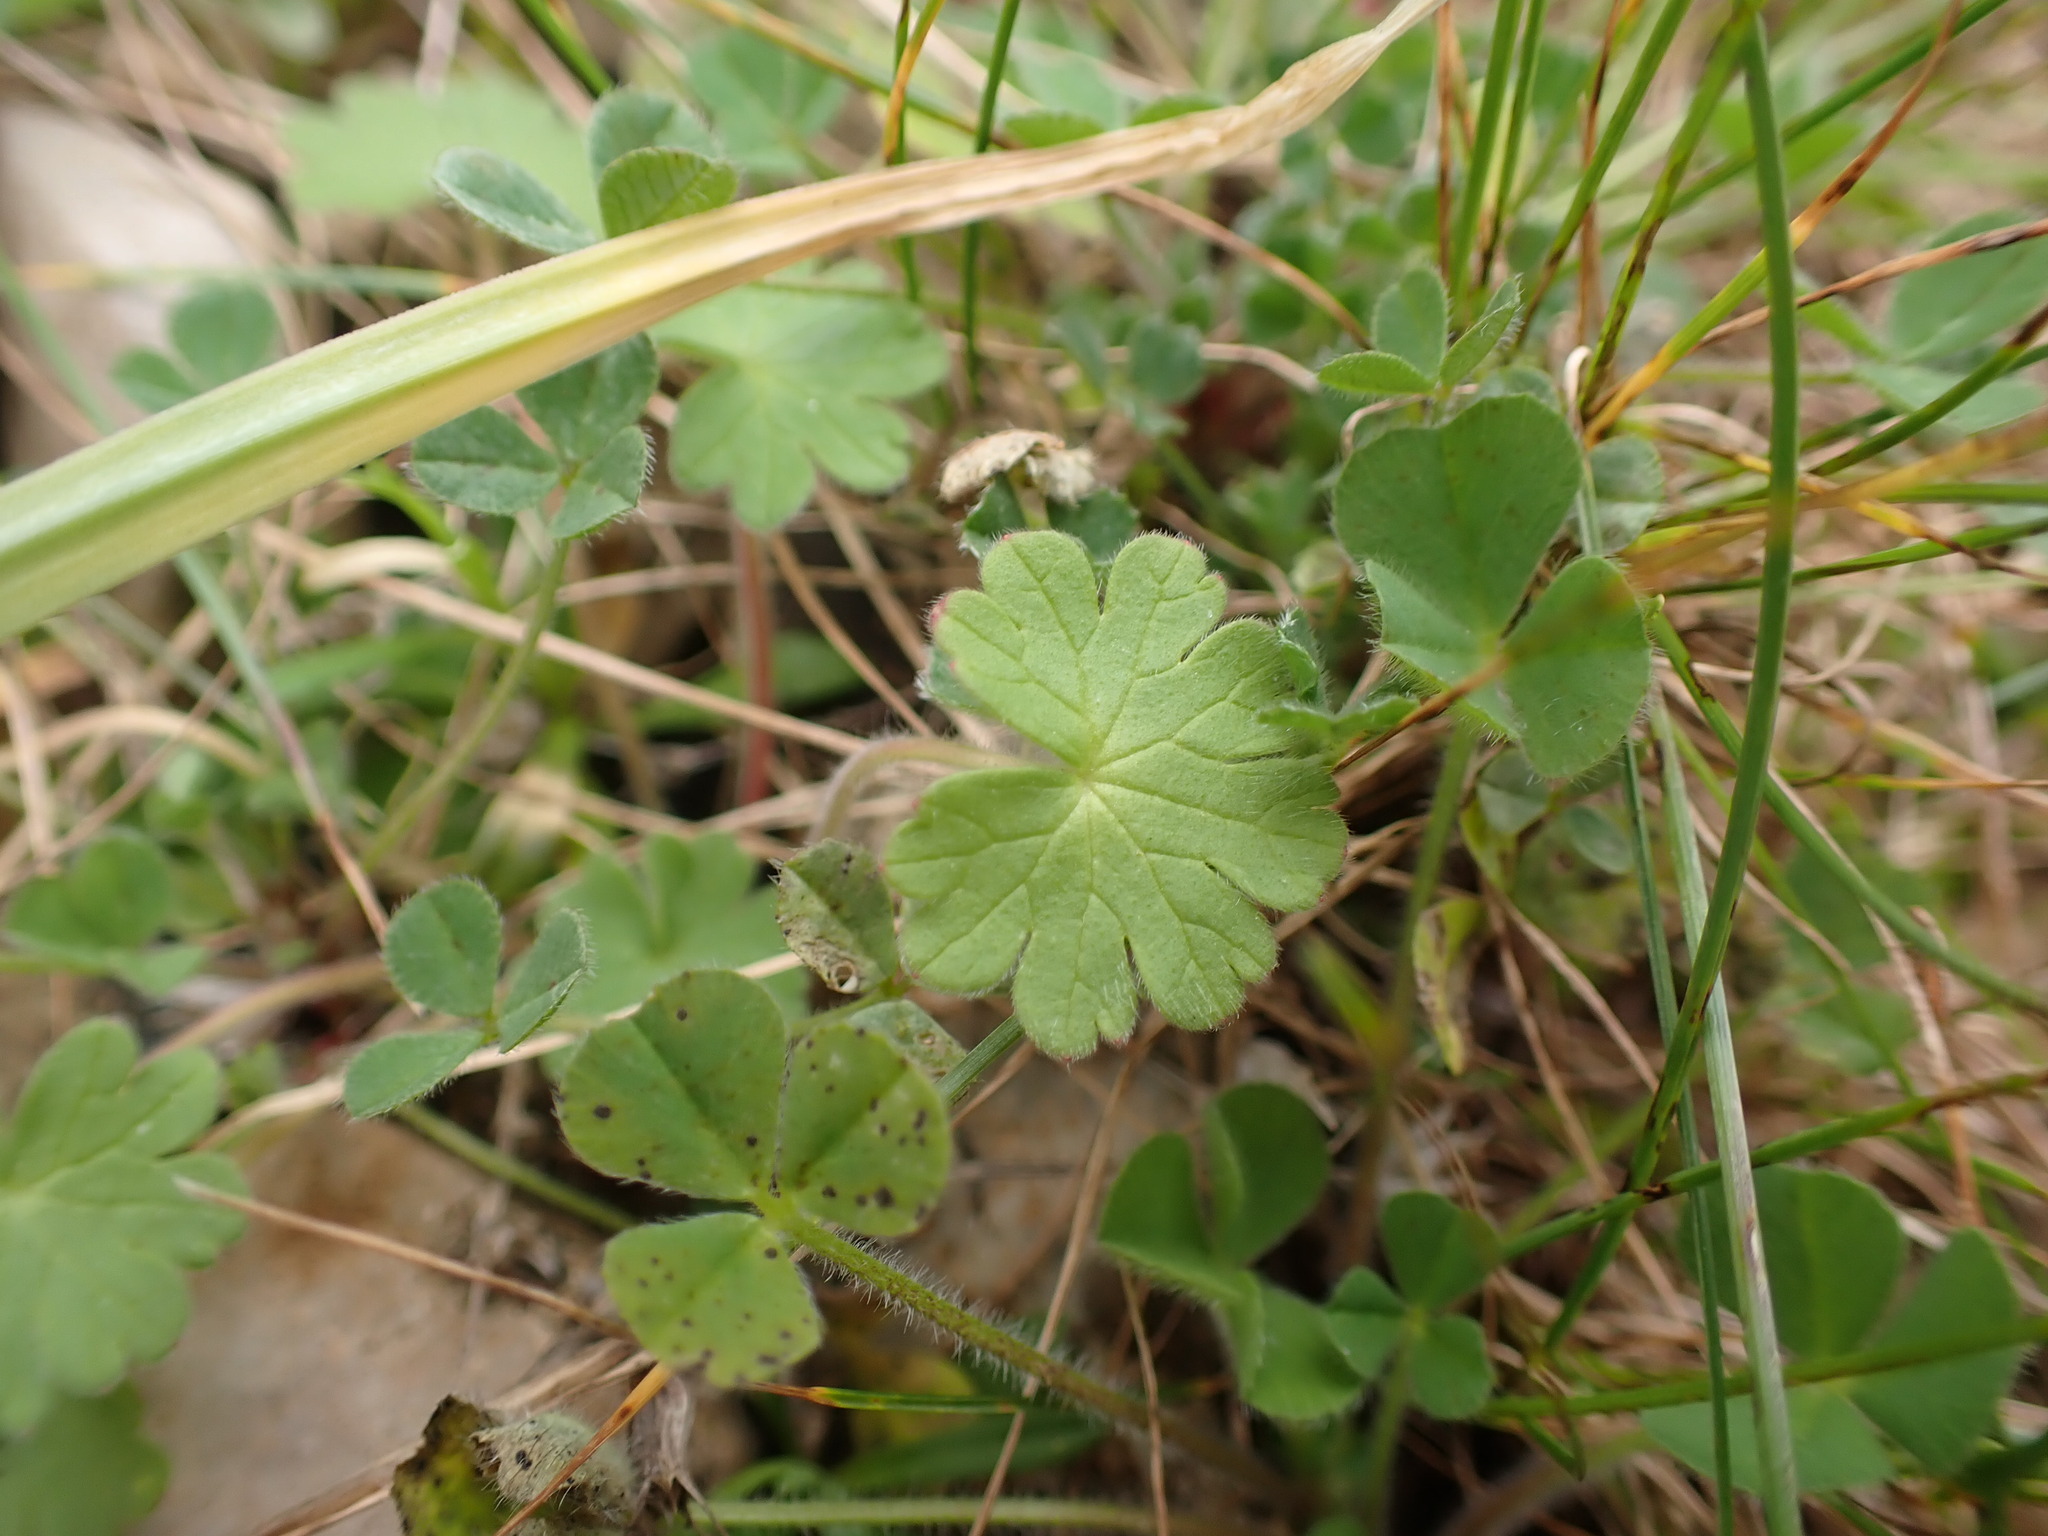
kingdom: Plantae
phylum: Tracheophyta
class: Magnoliopsida
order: Geraniales
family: Geraniaceae
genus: Geranium
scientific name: Geranium molle
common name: Dove's-foot crane's-bill
